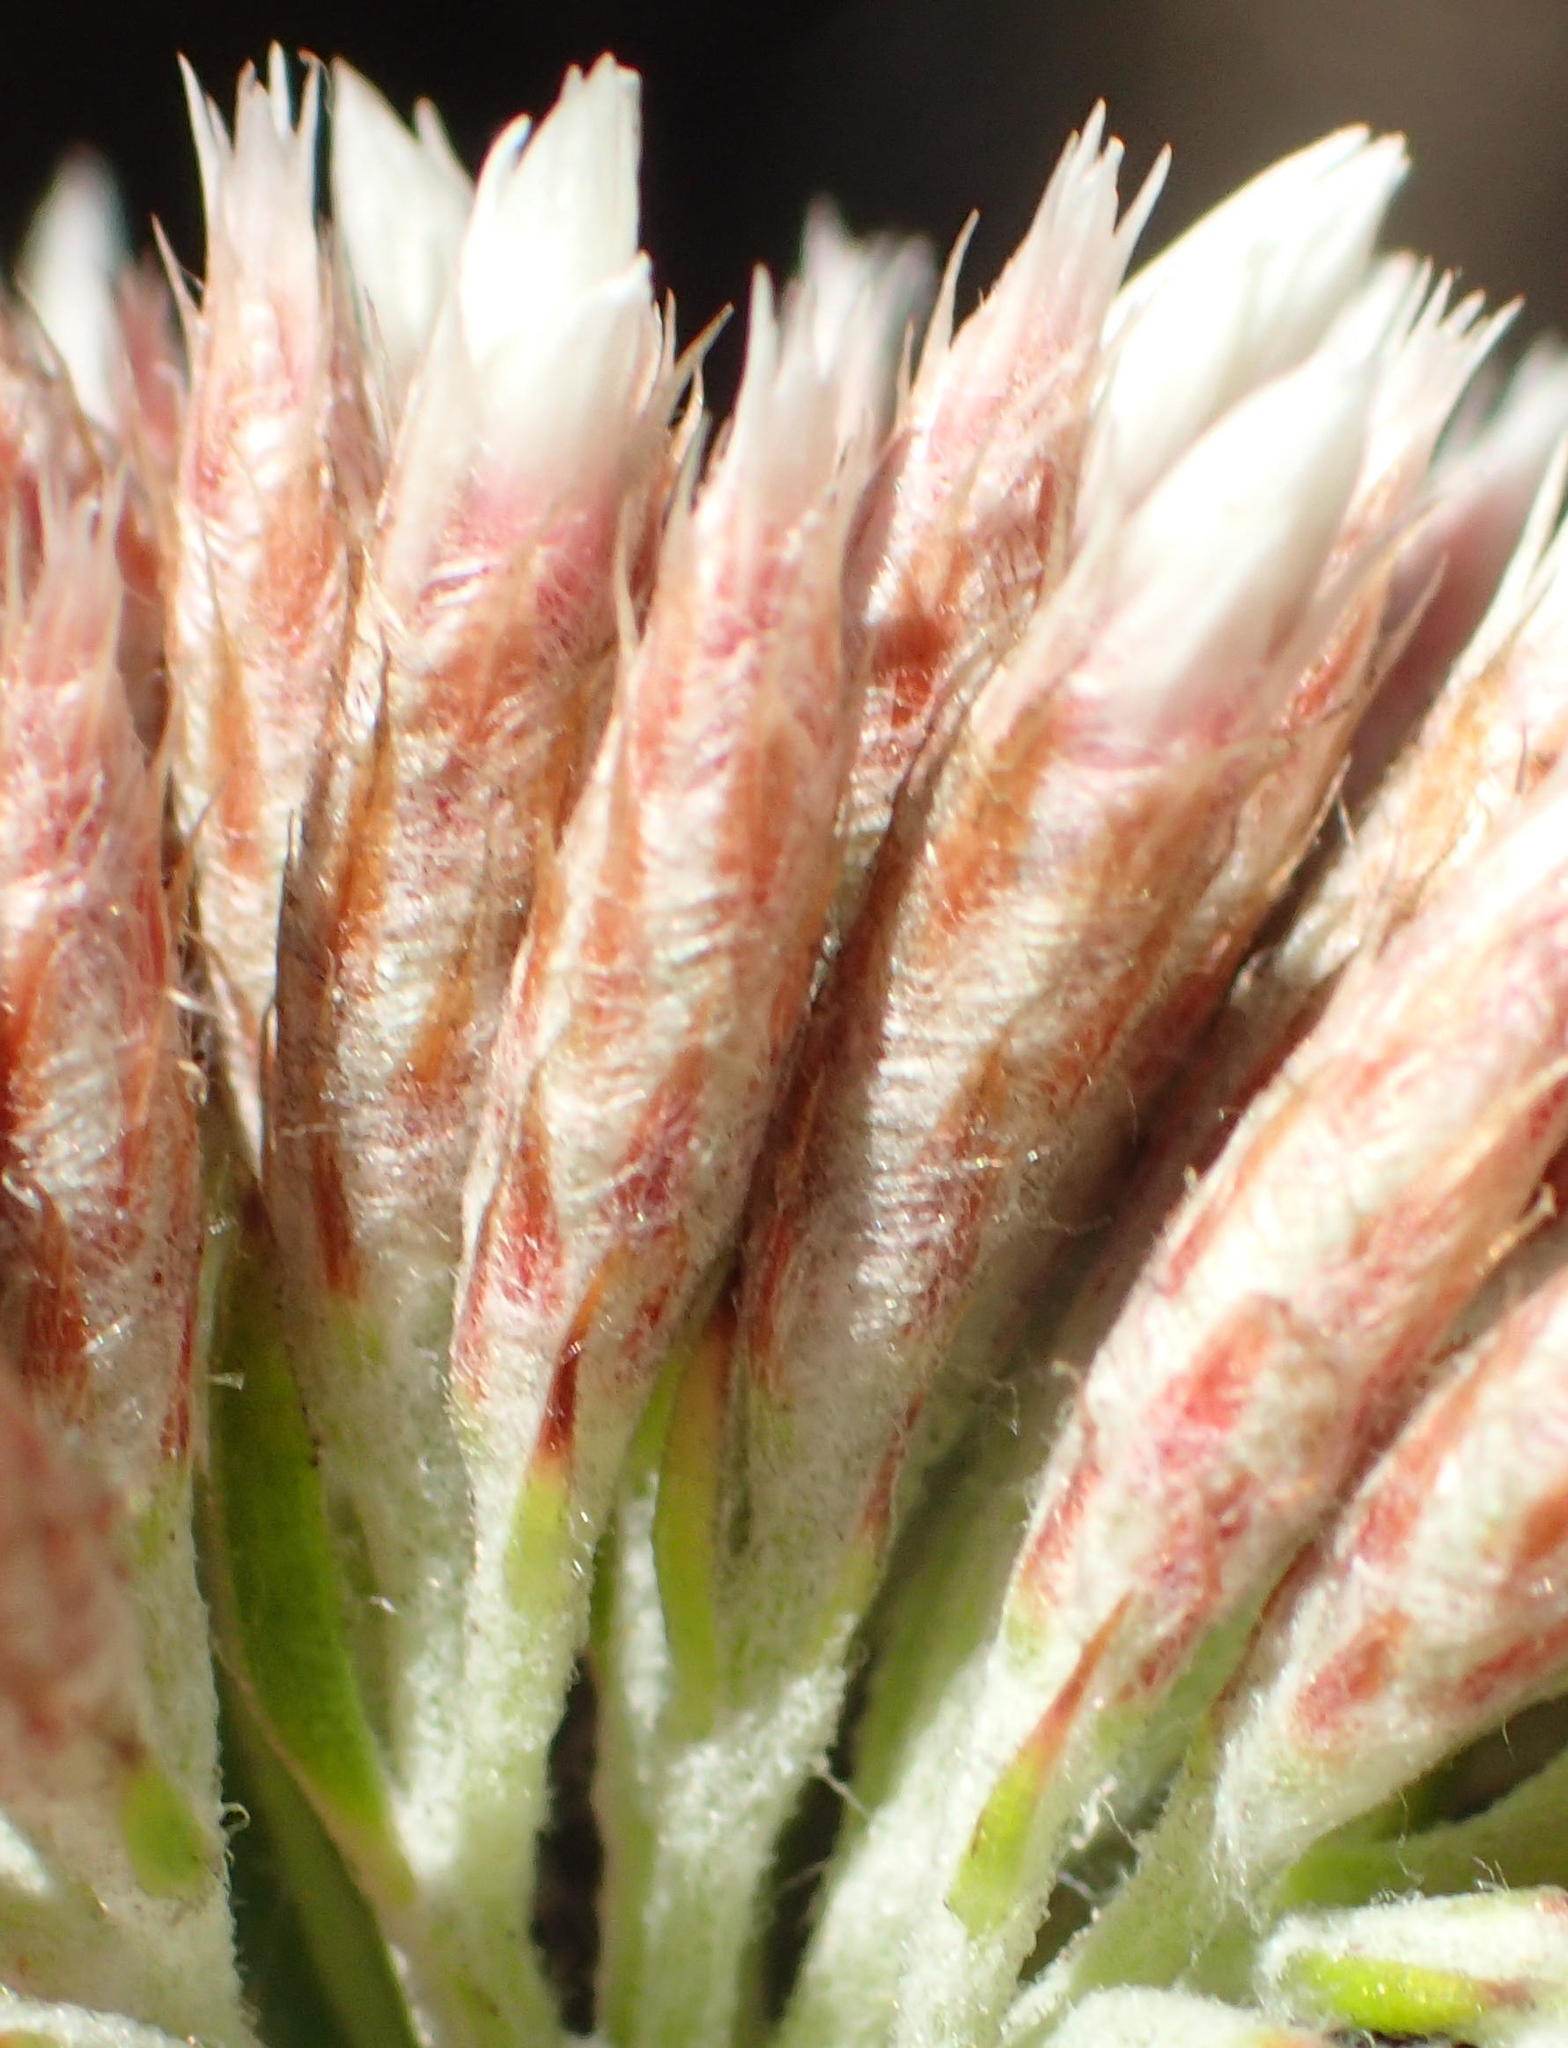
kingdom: Plantae
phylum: Tracheophyta
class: Magnoliopsida
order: Asterales
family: Asteraceae
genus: Metalasia
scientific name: Metalasia pulcherrima
